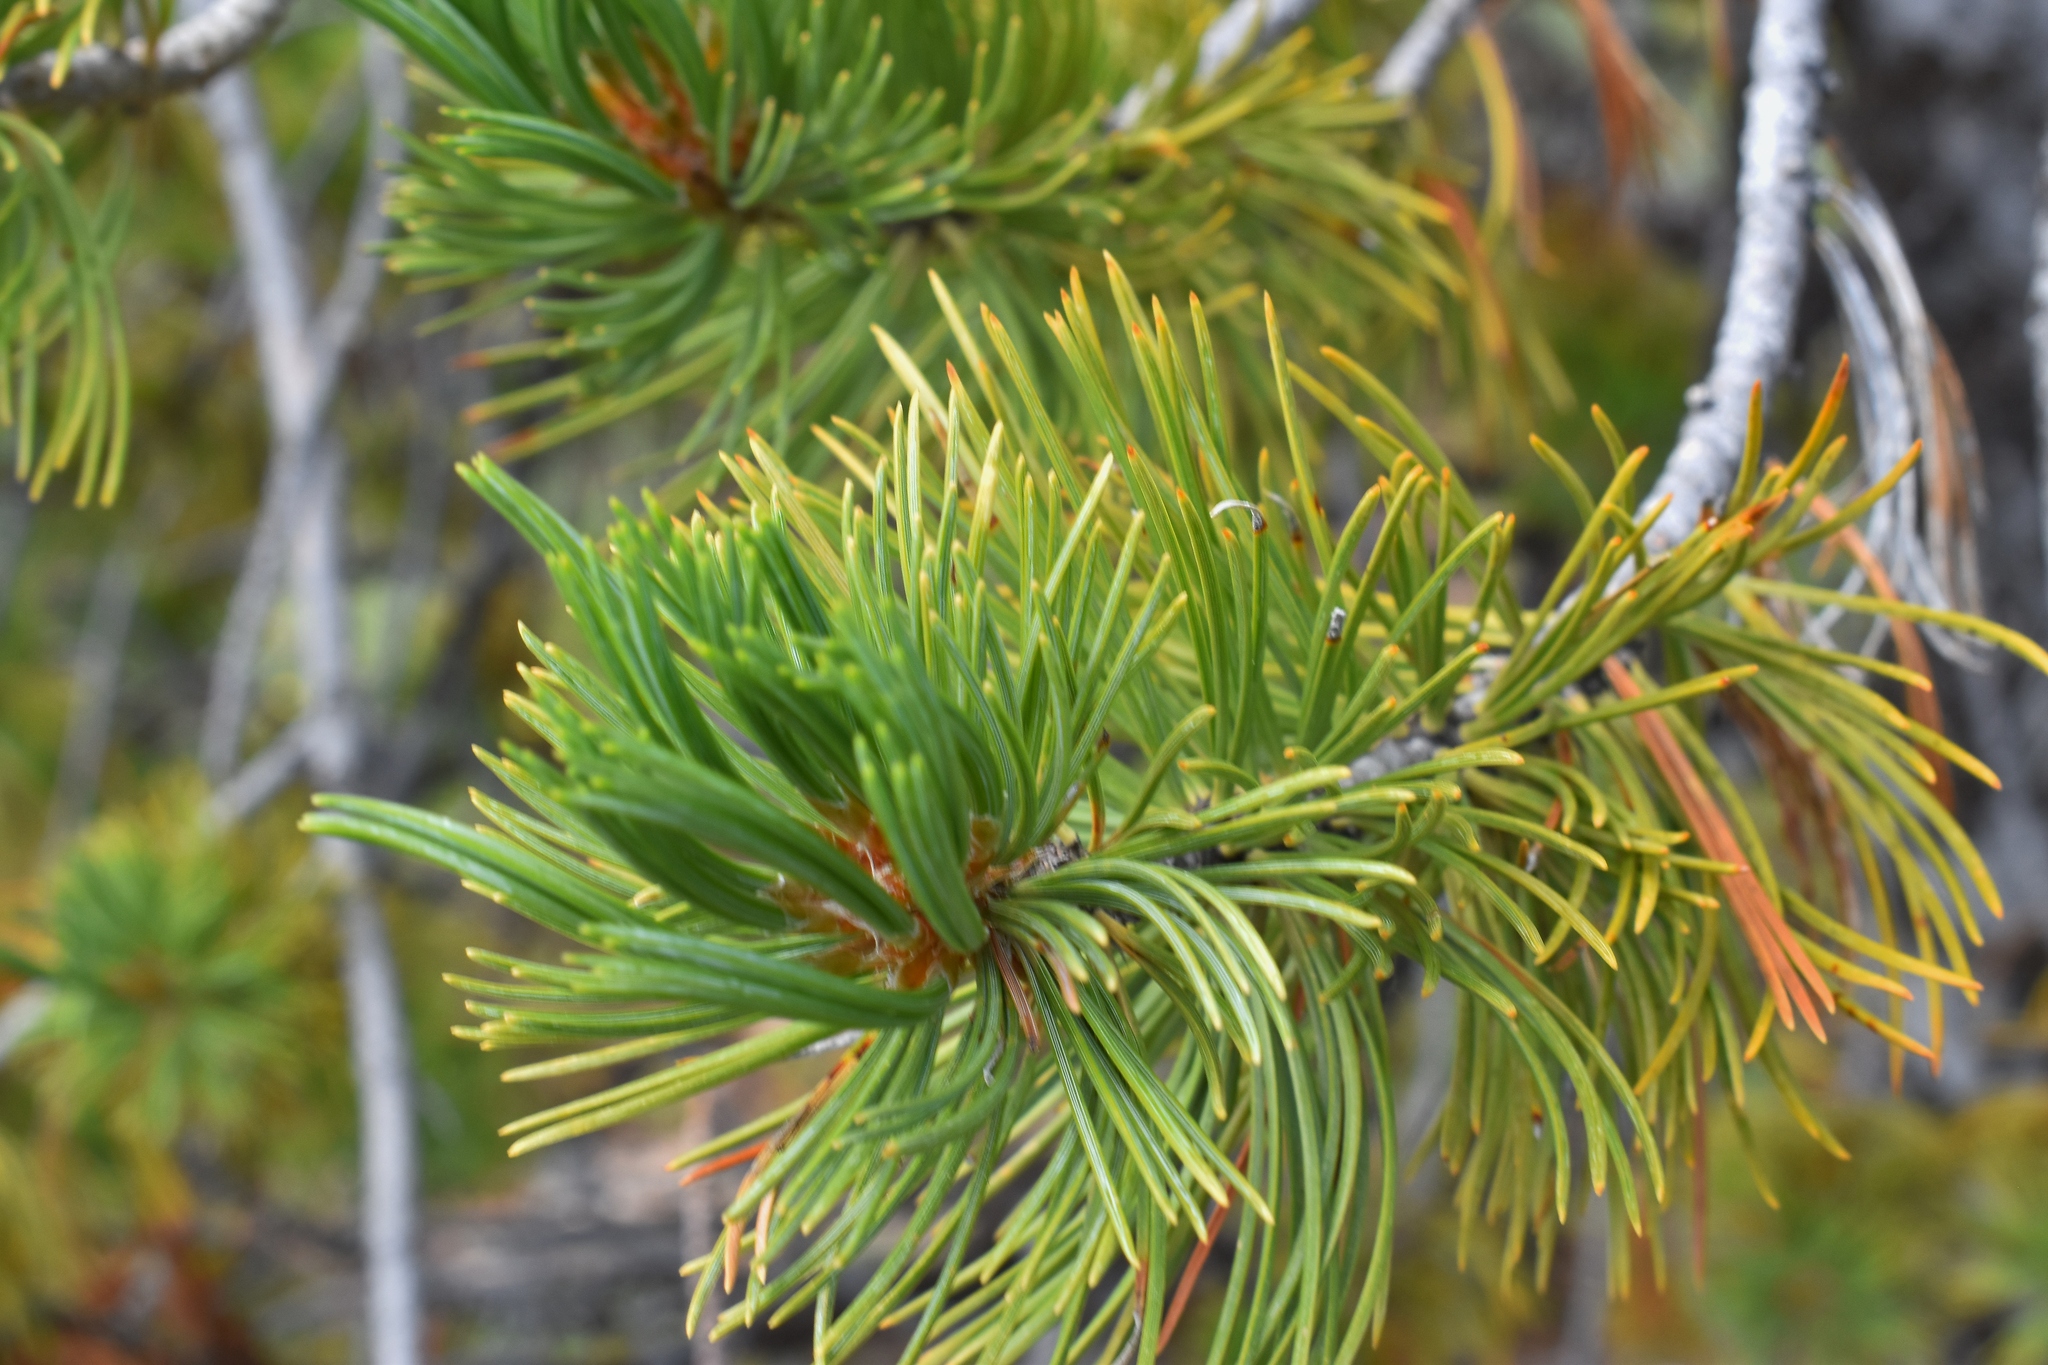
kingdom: Plantae
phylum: Tracheophyta
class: Pinopsida
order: Pinales
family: Pinaceae
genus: Pinus
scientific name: Pinus flexilis
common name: Limber pine
